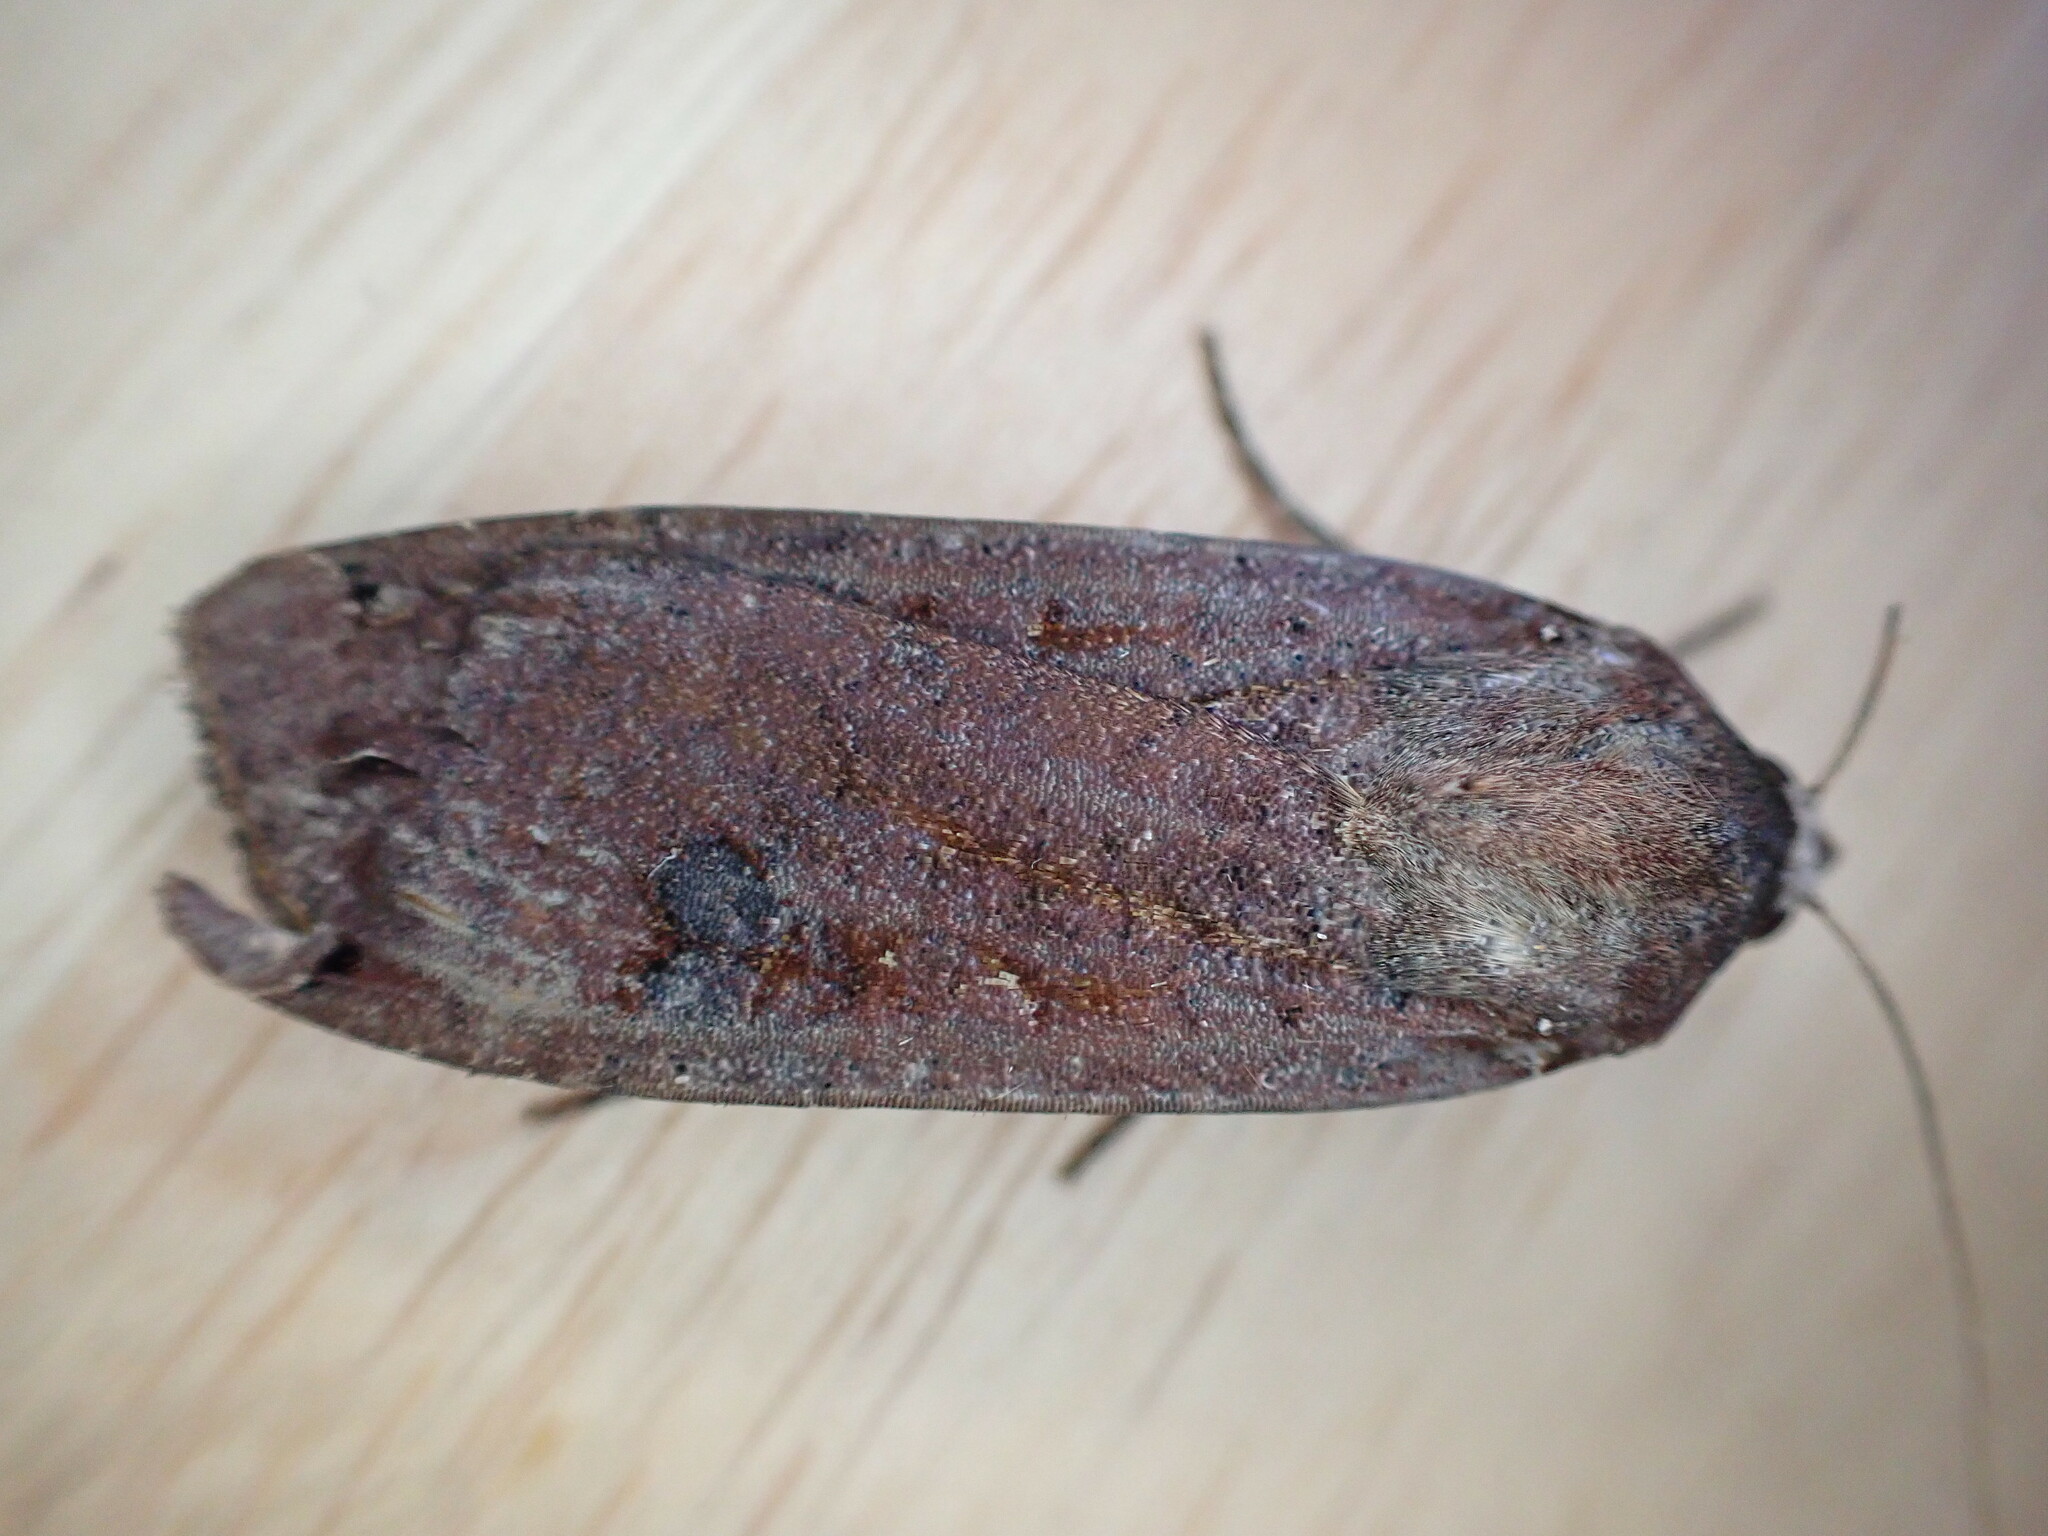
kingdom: Animalia
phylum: Arthropoda
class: Insecta
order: Lepidoptera
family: Noctuidae
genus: Noctua
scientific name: Noctua pronuba
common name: Large yellow underwing
